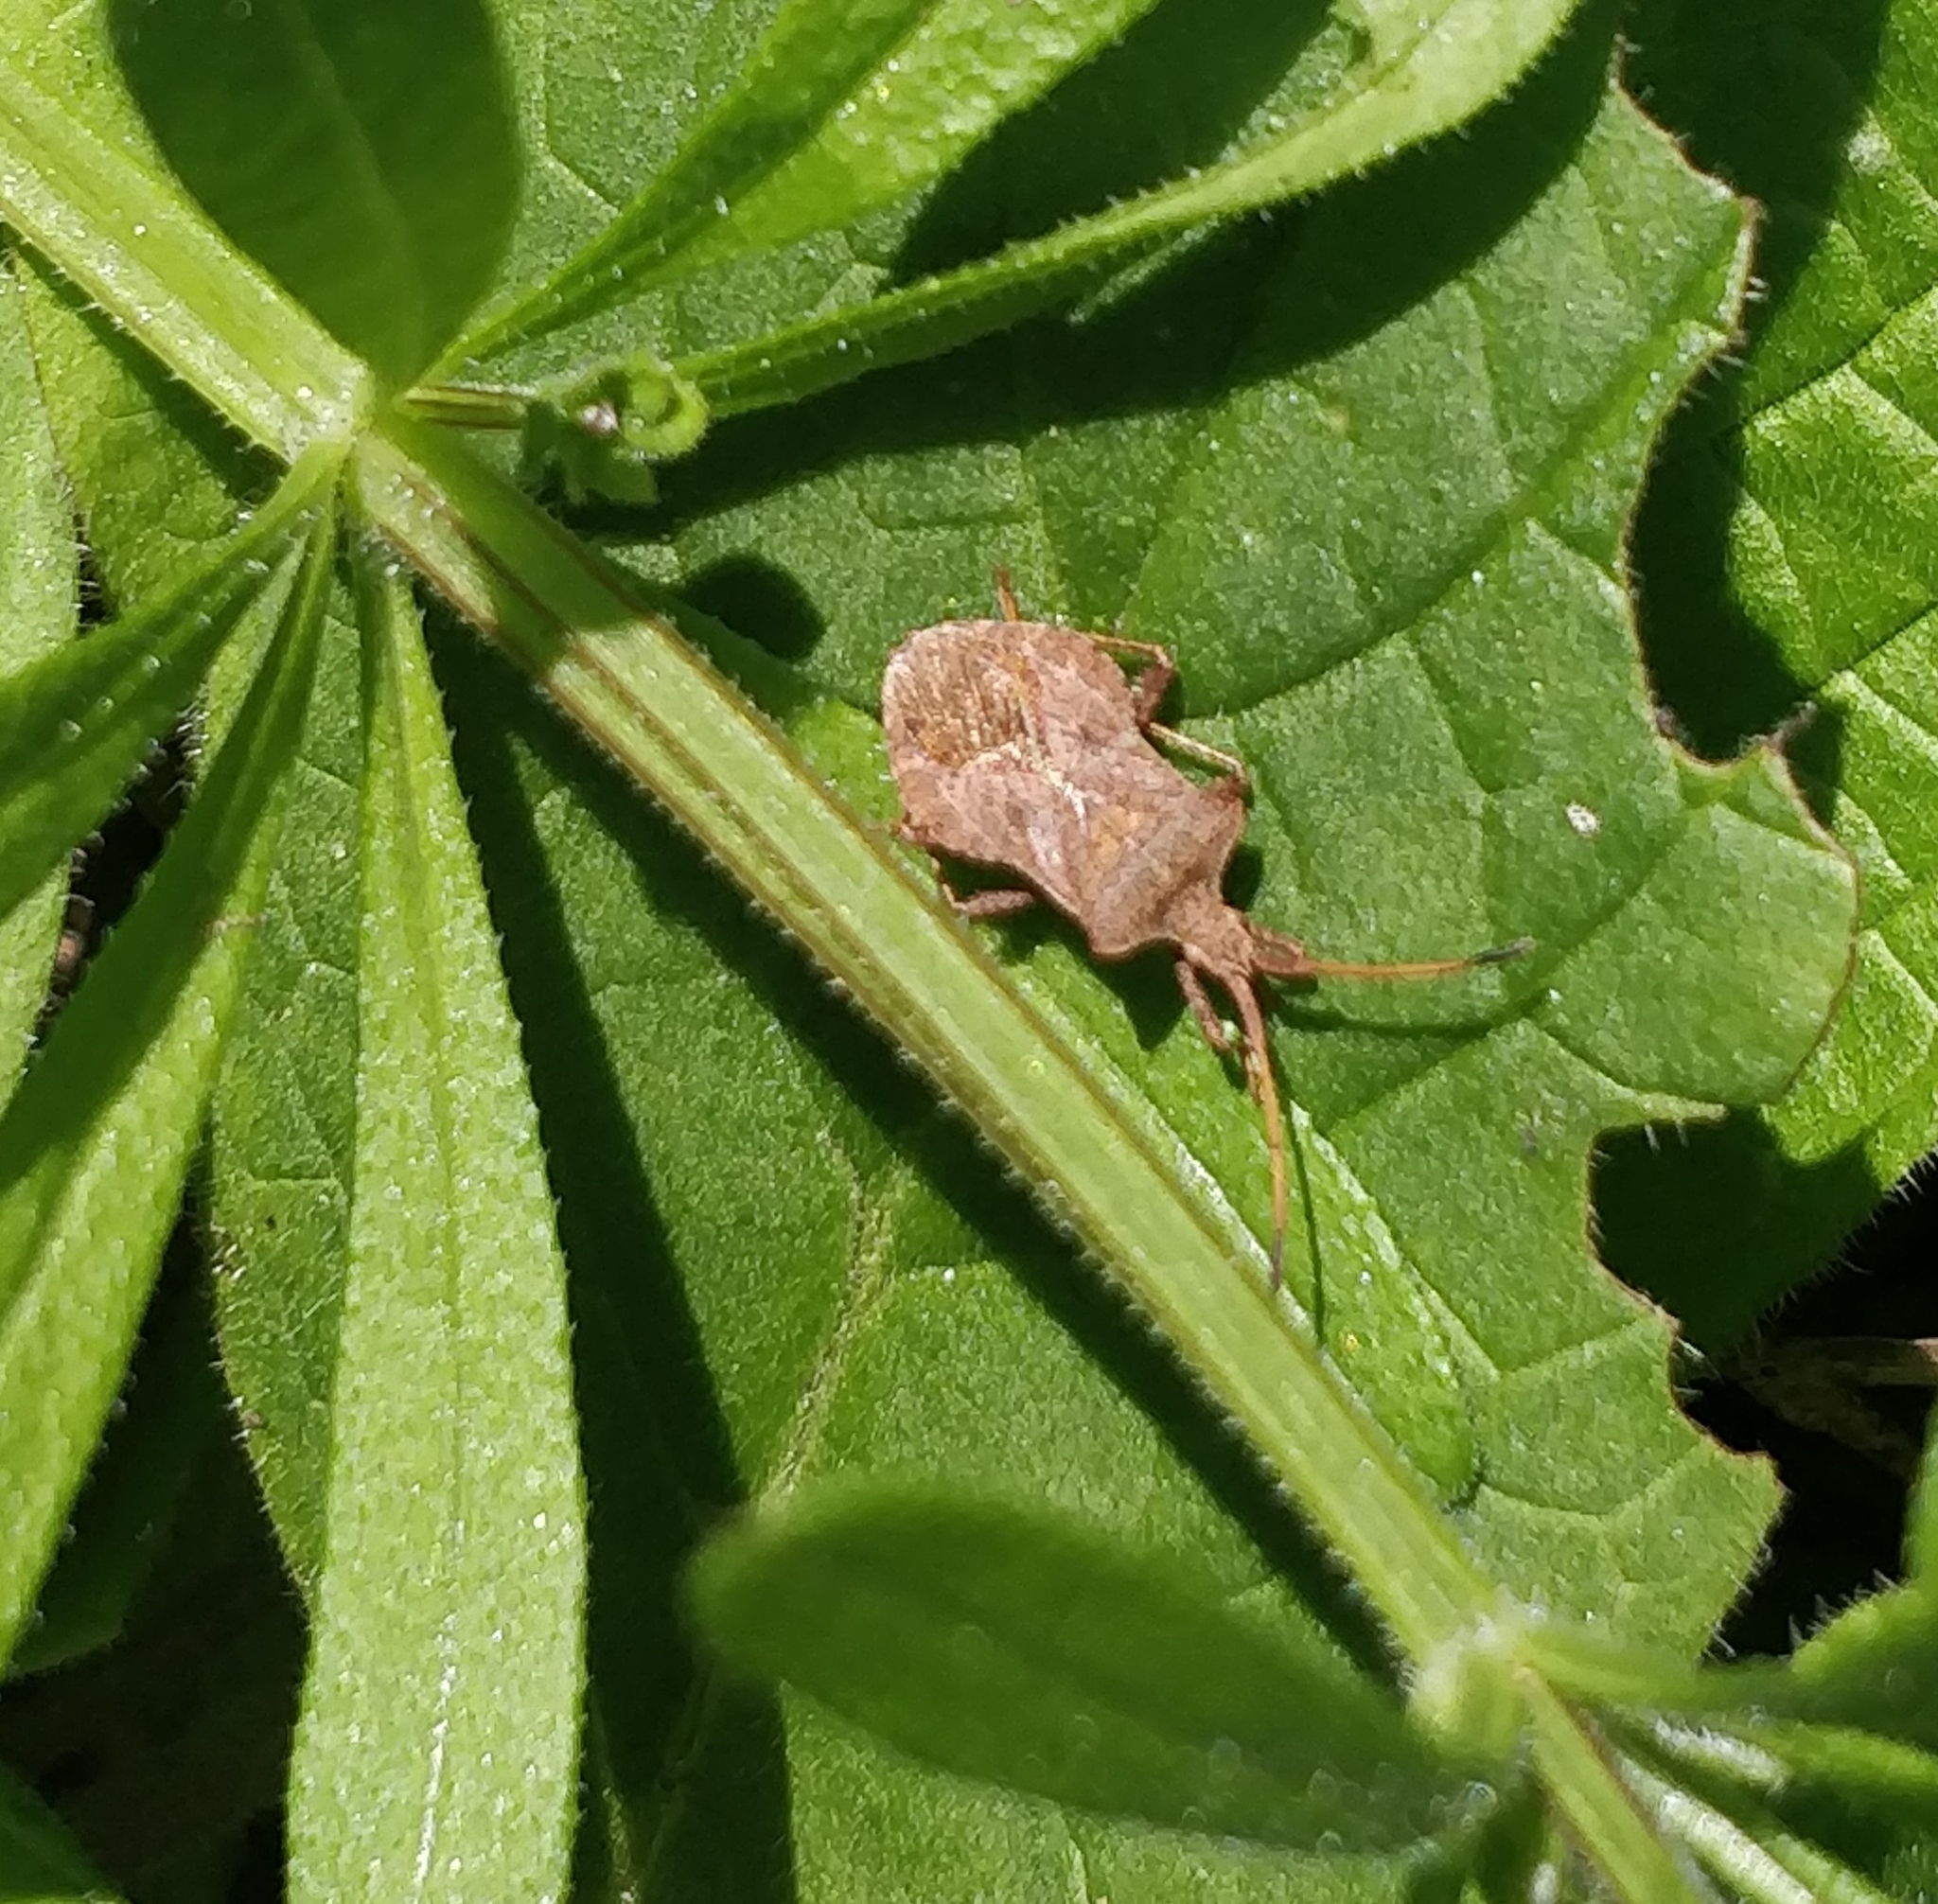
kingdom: Animalia
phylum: Arthropoda
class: Insecta
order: Hemiptera
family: Coreidae
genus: Coreus
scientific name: Coreus marginatus
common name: Dock bug
